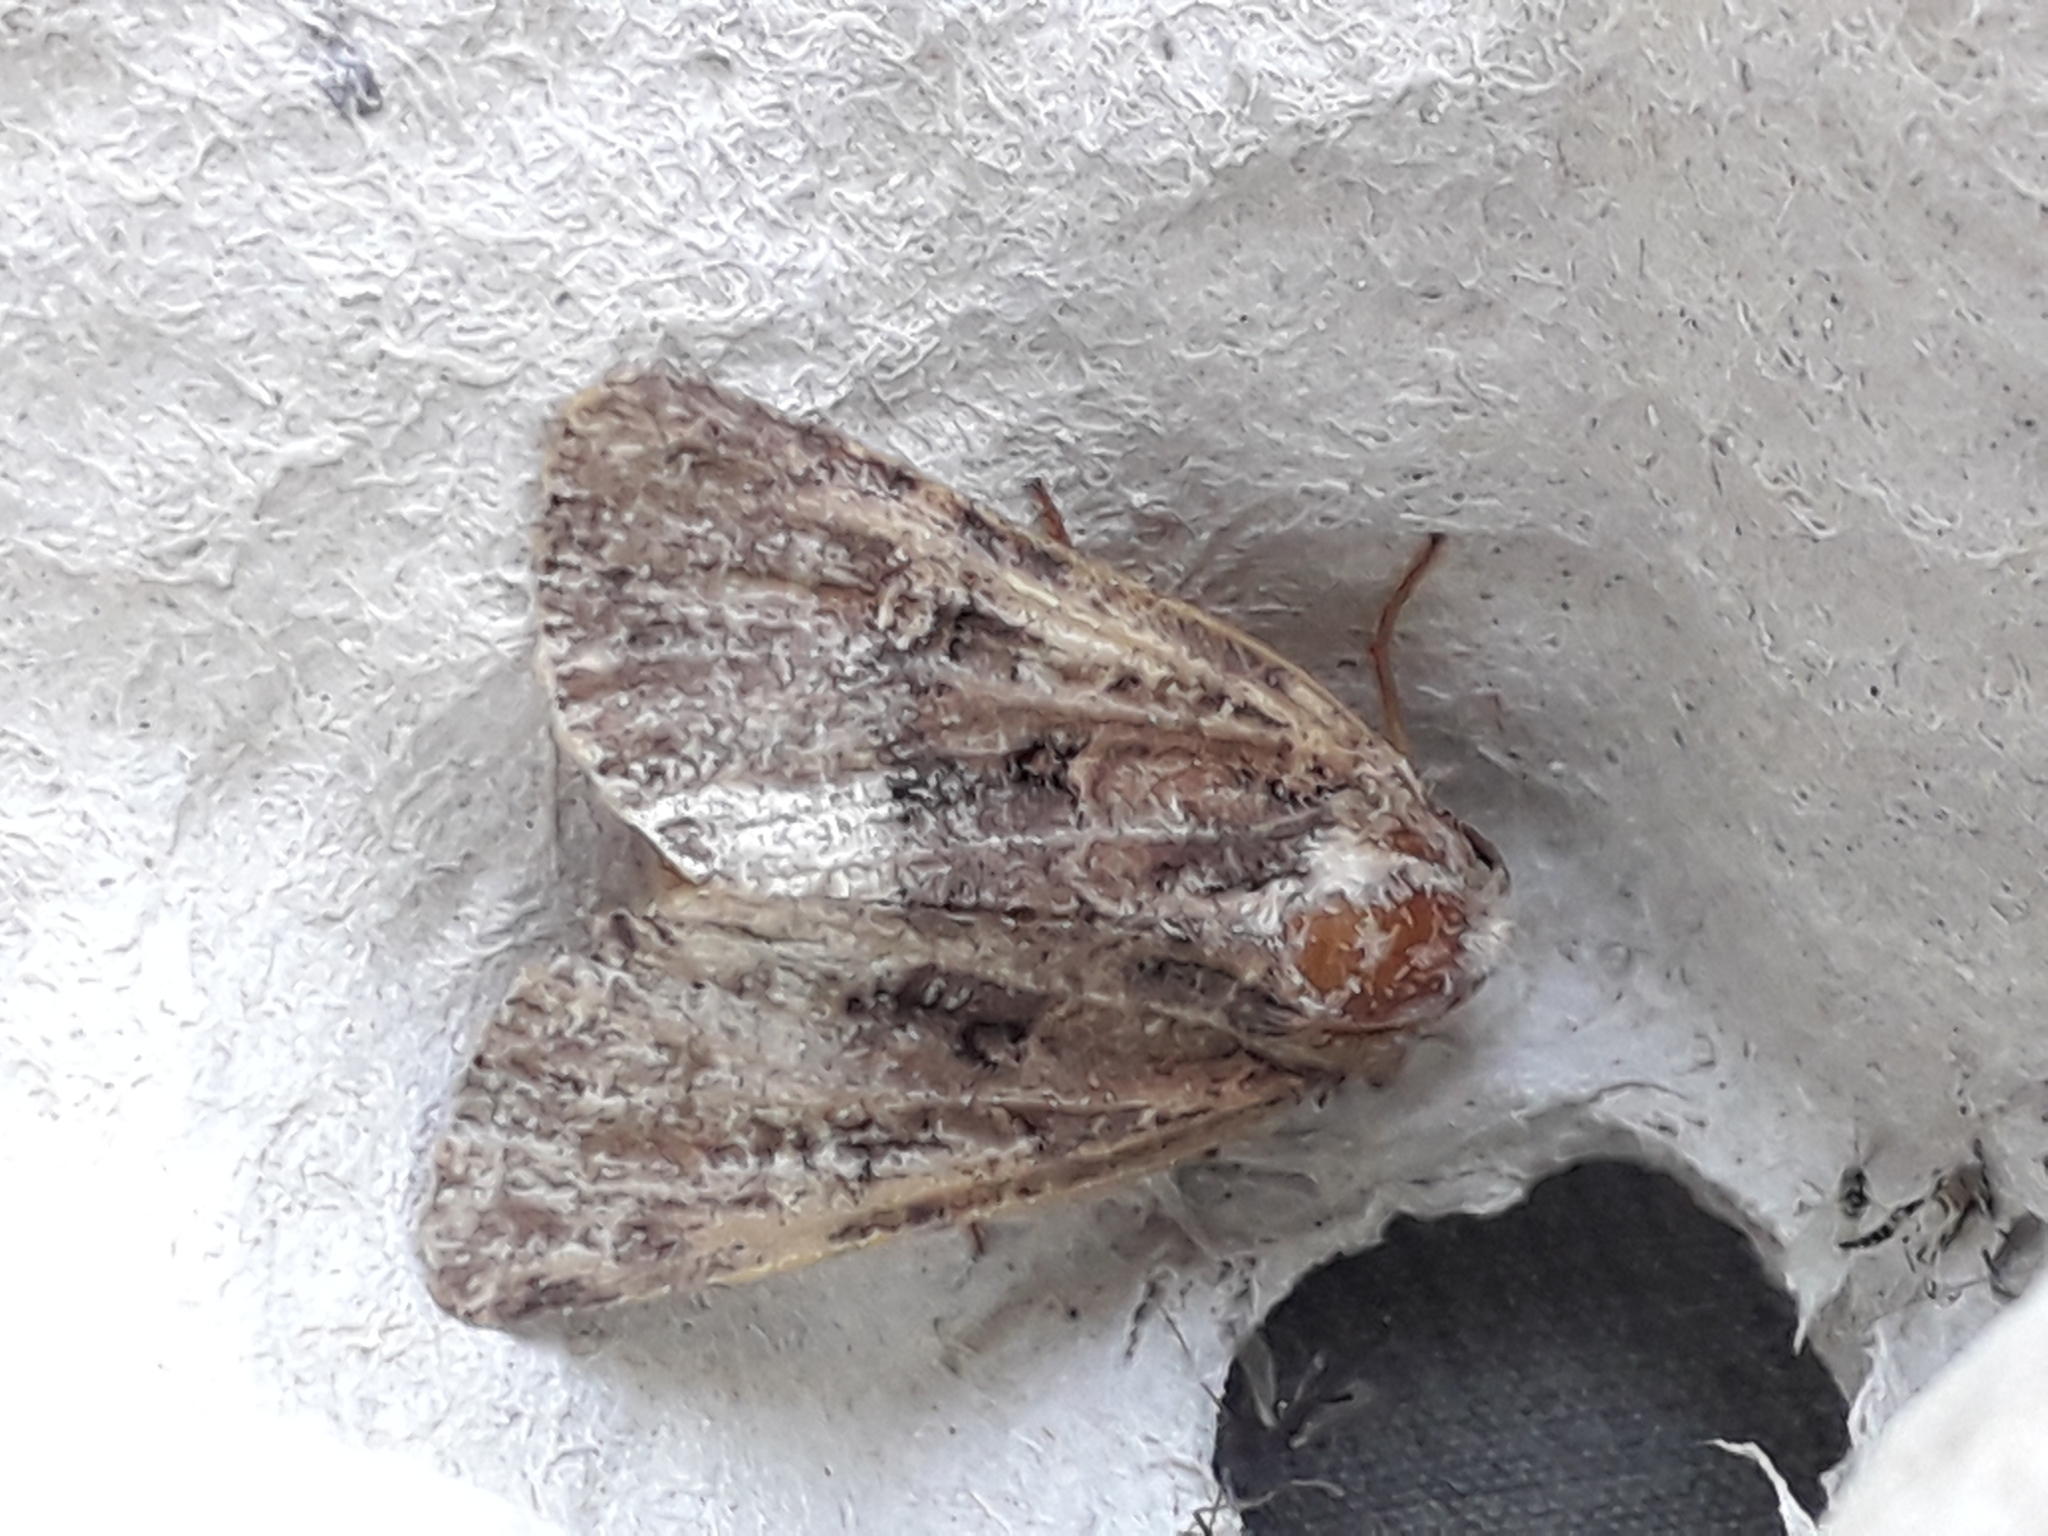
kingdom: Animalia
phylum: Arthropoda
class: Insecta
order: Lepidoptera
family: Noctuidae
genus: Mesapamea
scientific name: Mesapamea
